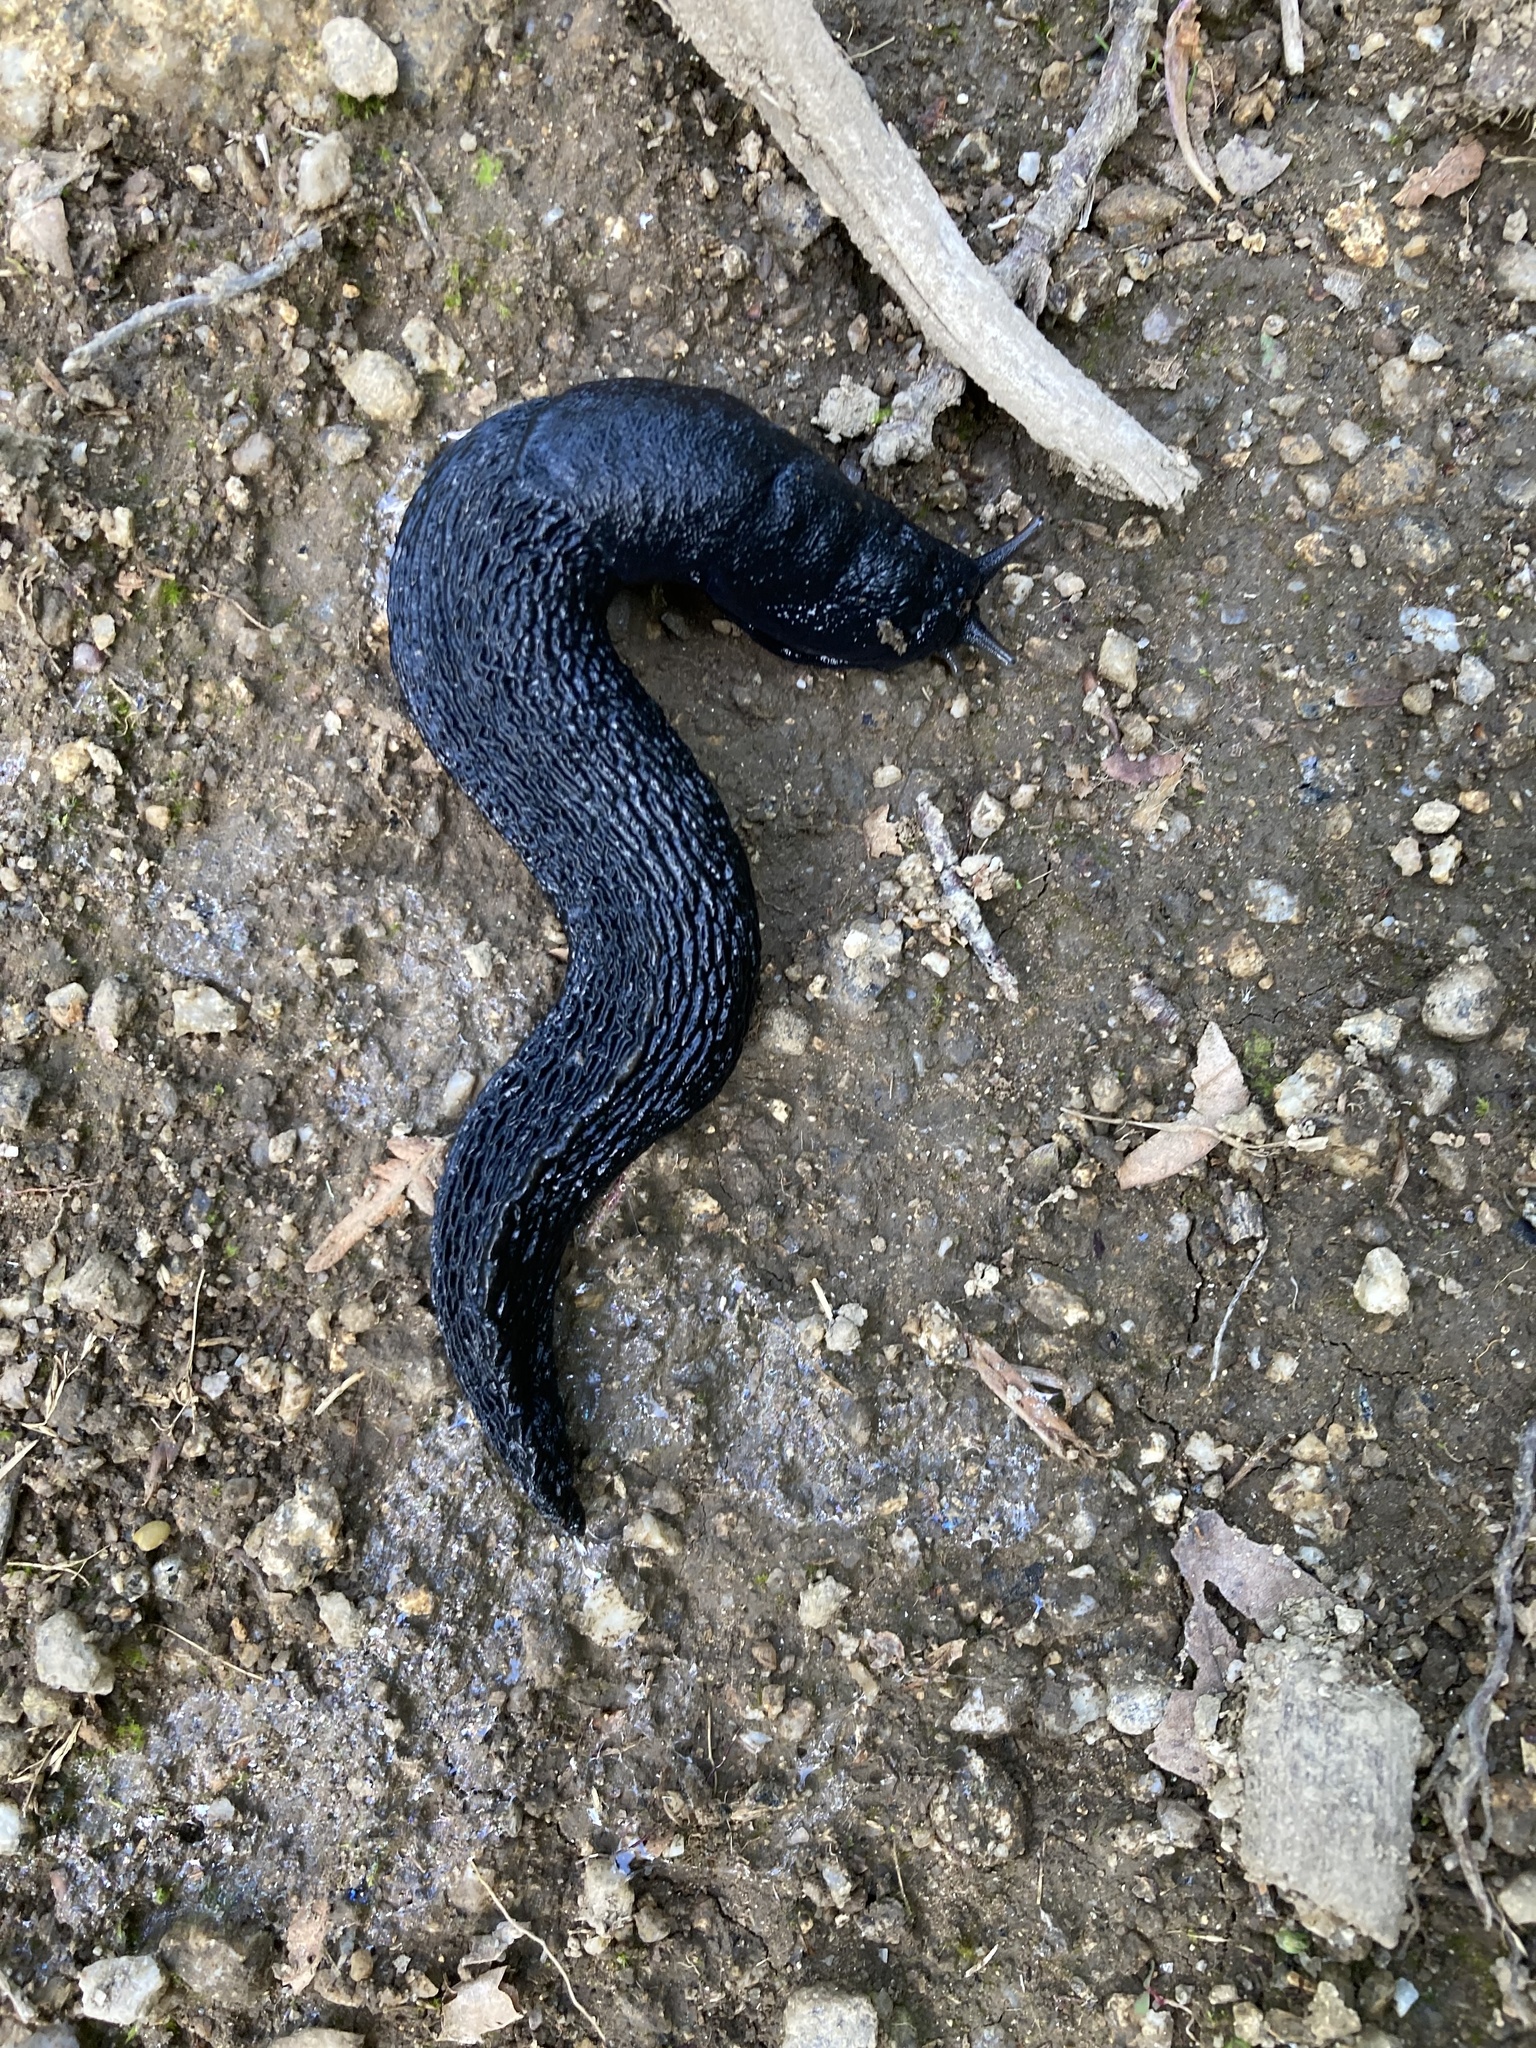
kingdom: Animalia
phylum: Mollusca
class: Gastropoda
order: Stylommatophora
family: Limacidae
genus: Limax
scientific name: Limax cinereoniger
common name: Ash-black slug
